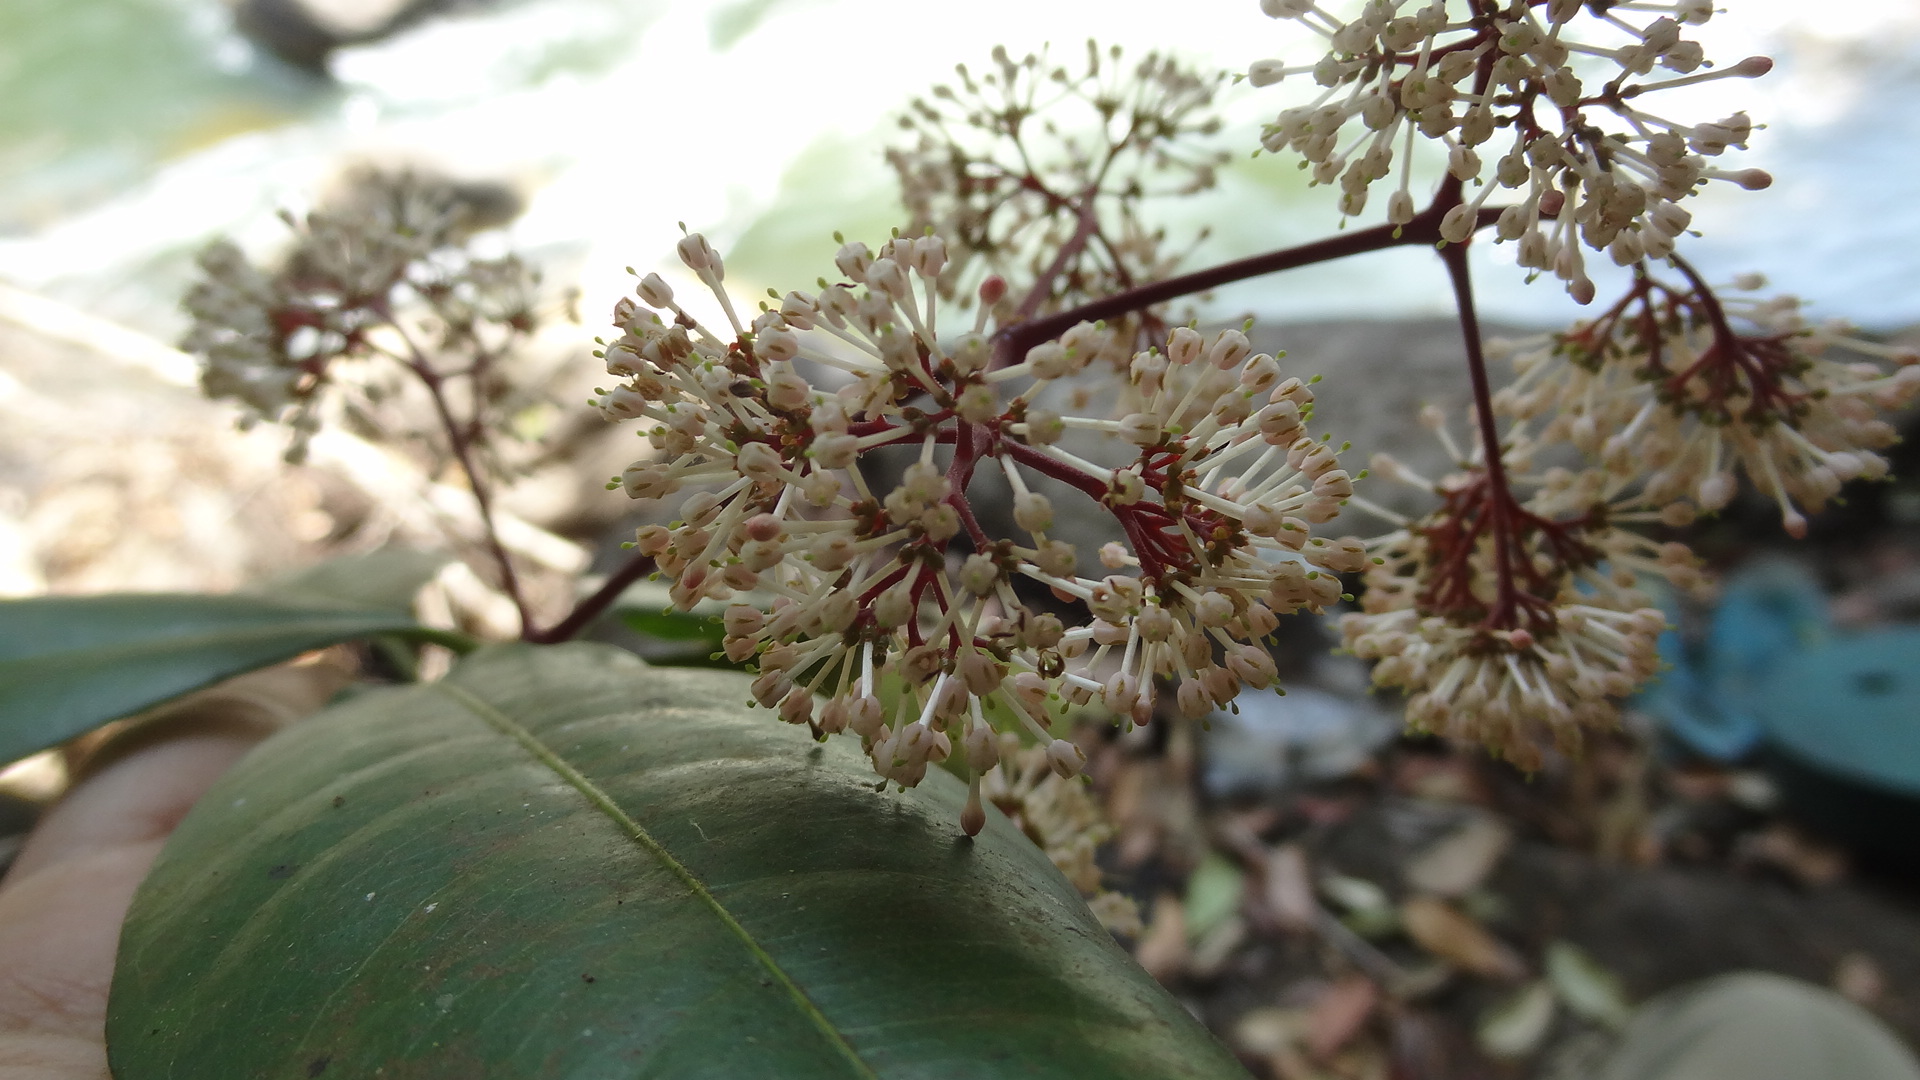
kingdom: Plantae
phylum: Tracheophyta
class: Magnoliopsida
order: Gentianales
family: Rubiaceae
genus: Ixora
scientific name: Ixora brachiata
